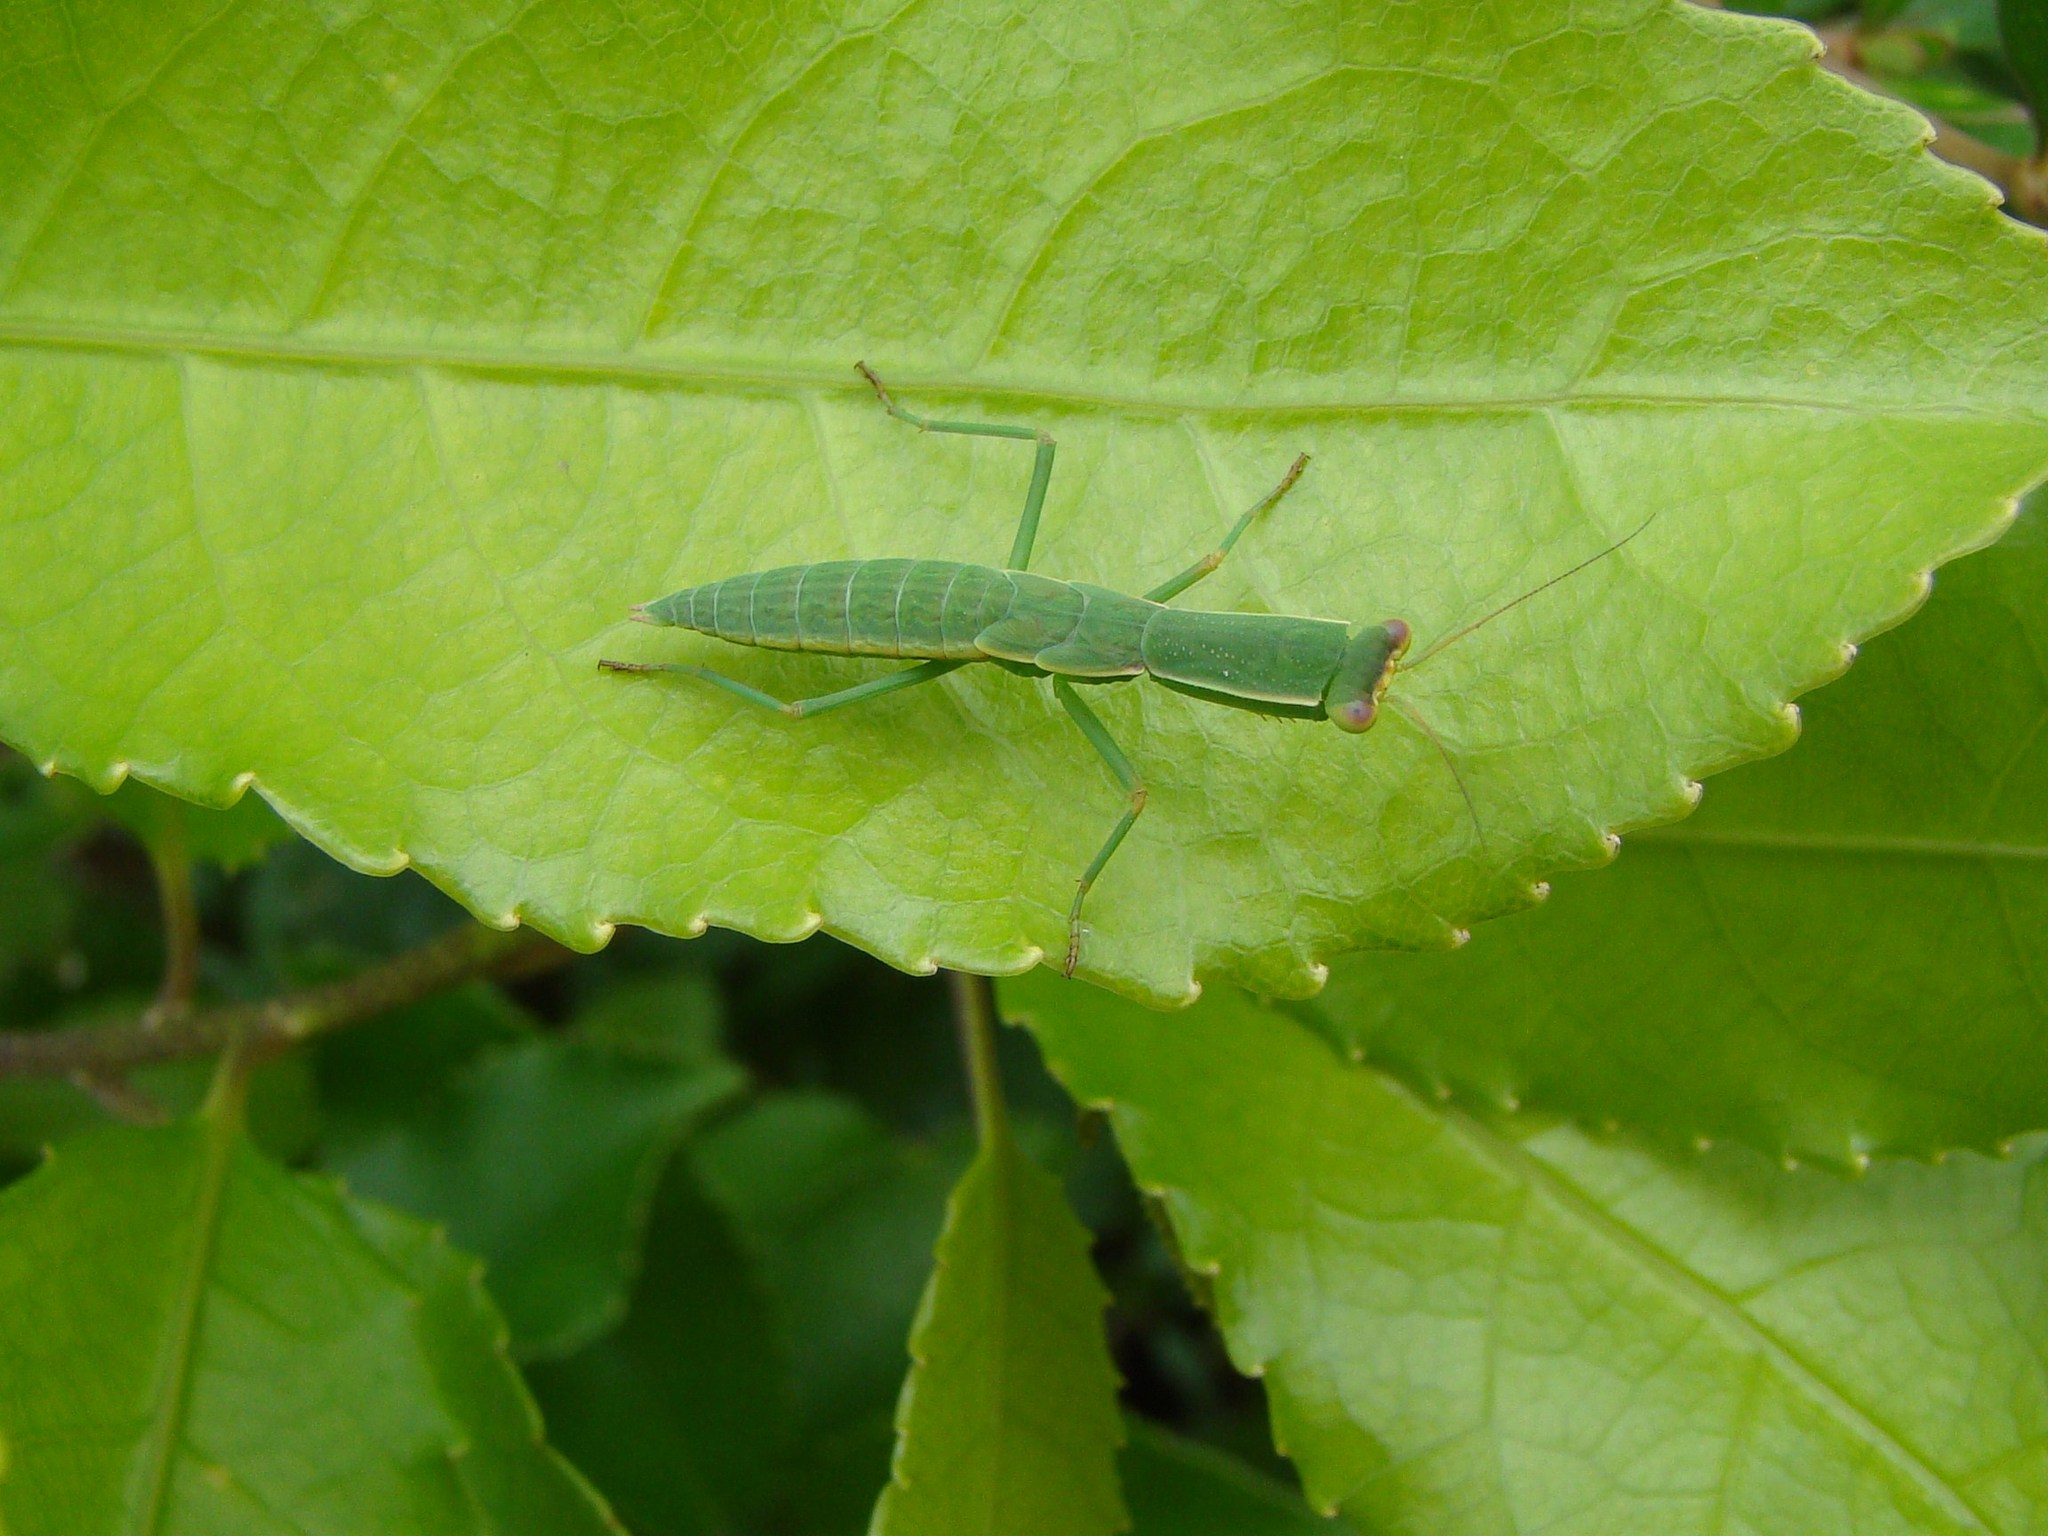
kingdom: Animalia
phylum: Arthropoda
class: Insecta
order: Mantodea
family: Mantidae
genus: Orthodera
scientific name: Orthodera novaezealandiae
